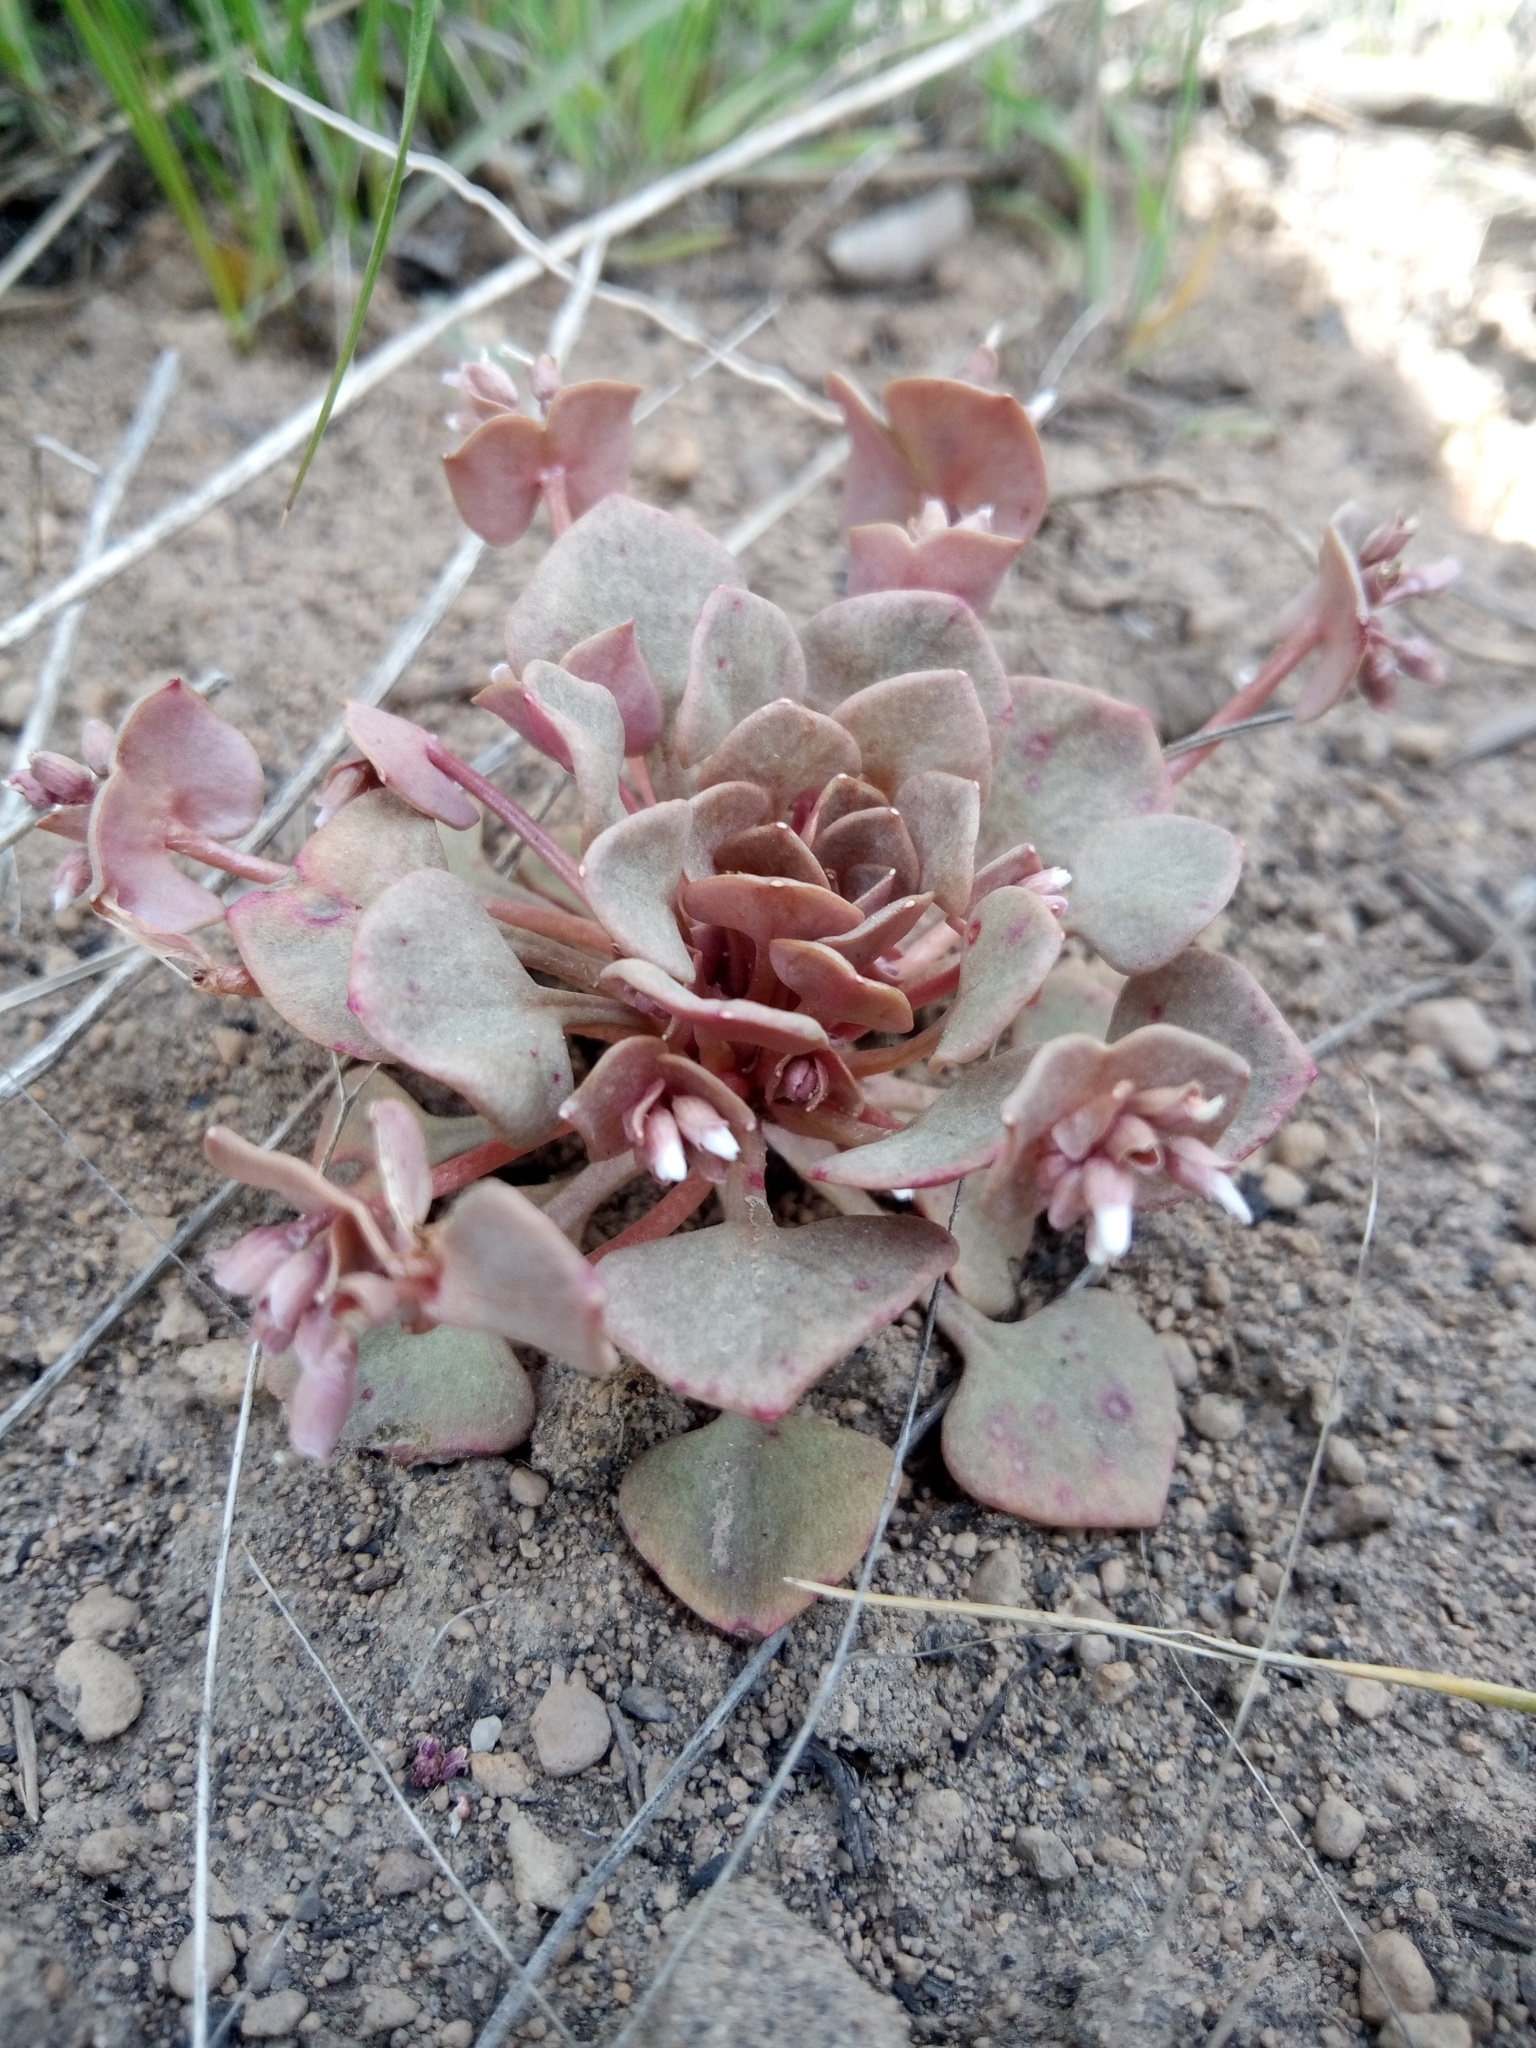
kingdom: Plantae
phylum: Tracheophyta
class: Magnoliopsida
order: Caryophyllales
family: Montiaceae
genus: Claytonia
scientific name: Claytonia rubra
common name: Erubescent miner's-lettuce
